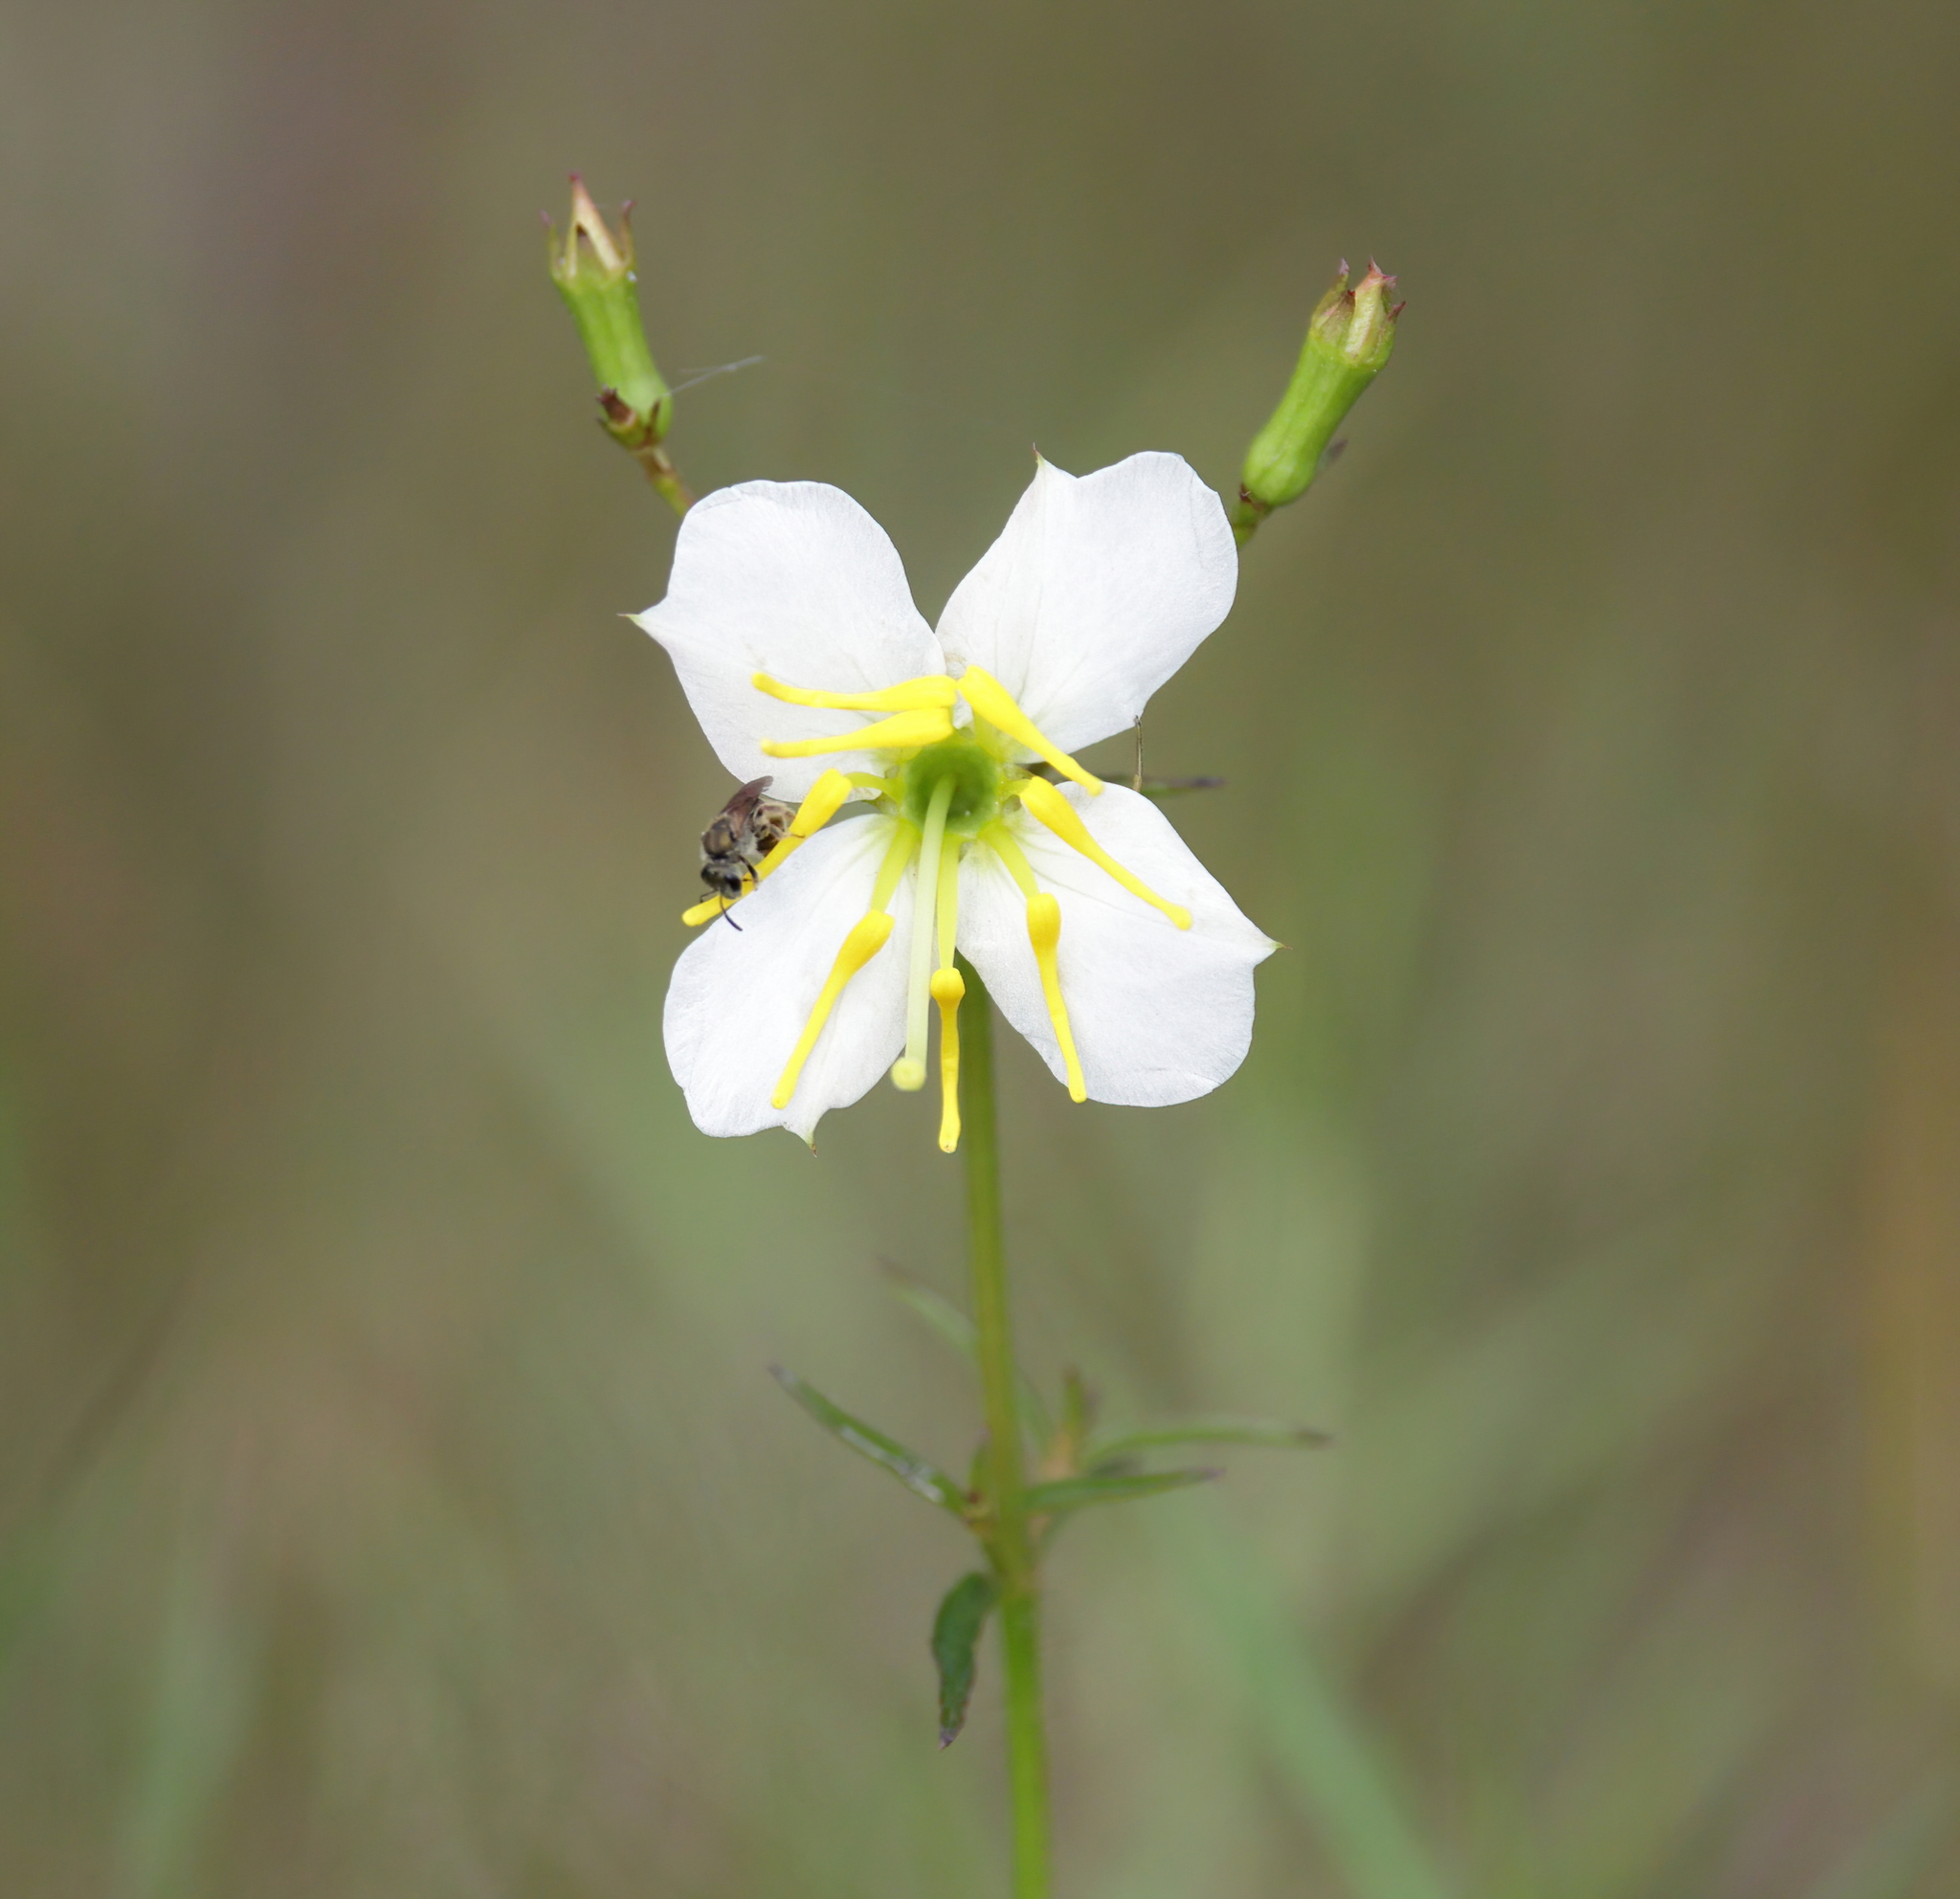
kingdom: Plantae
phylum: Tracheophyta
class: Magnoliopsida
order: Myrtales
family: Melastomataceae
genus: Rhexia
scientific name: Rhexia mariana
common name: Dull meadow-pitcher
